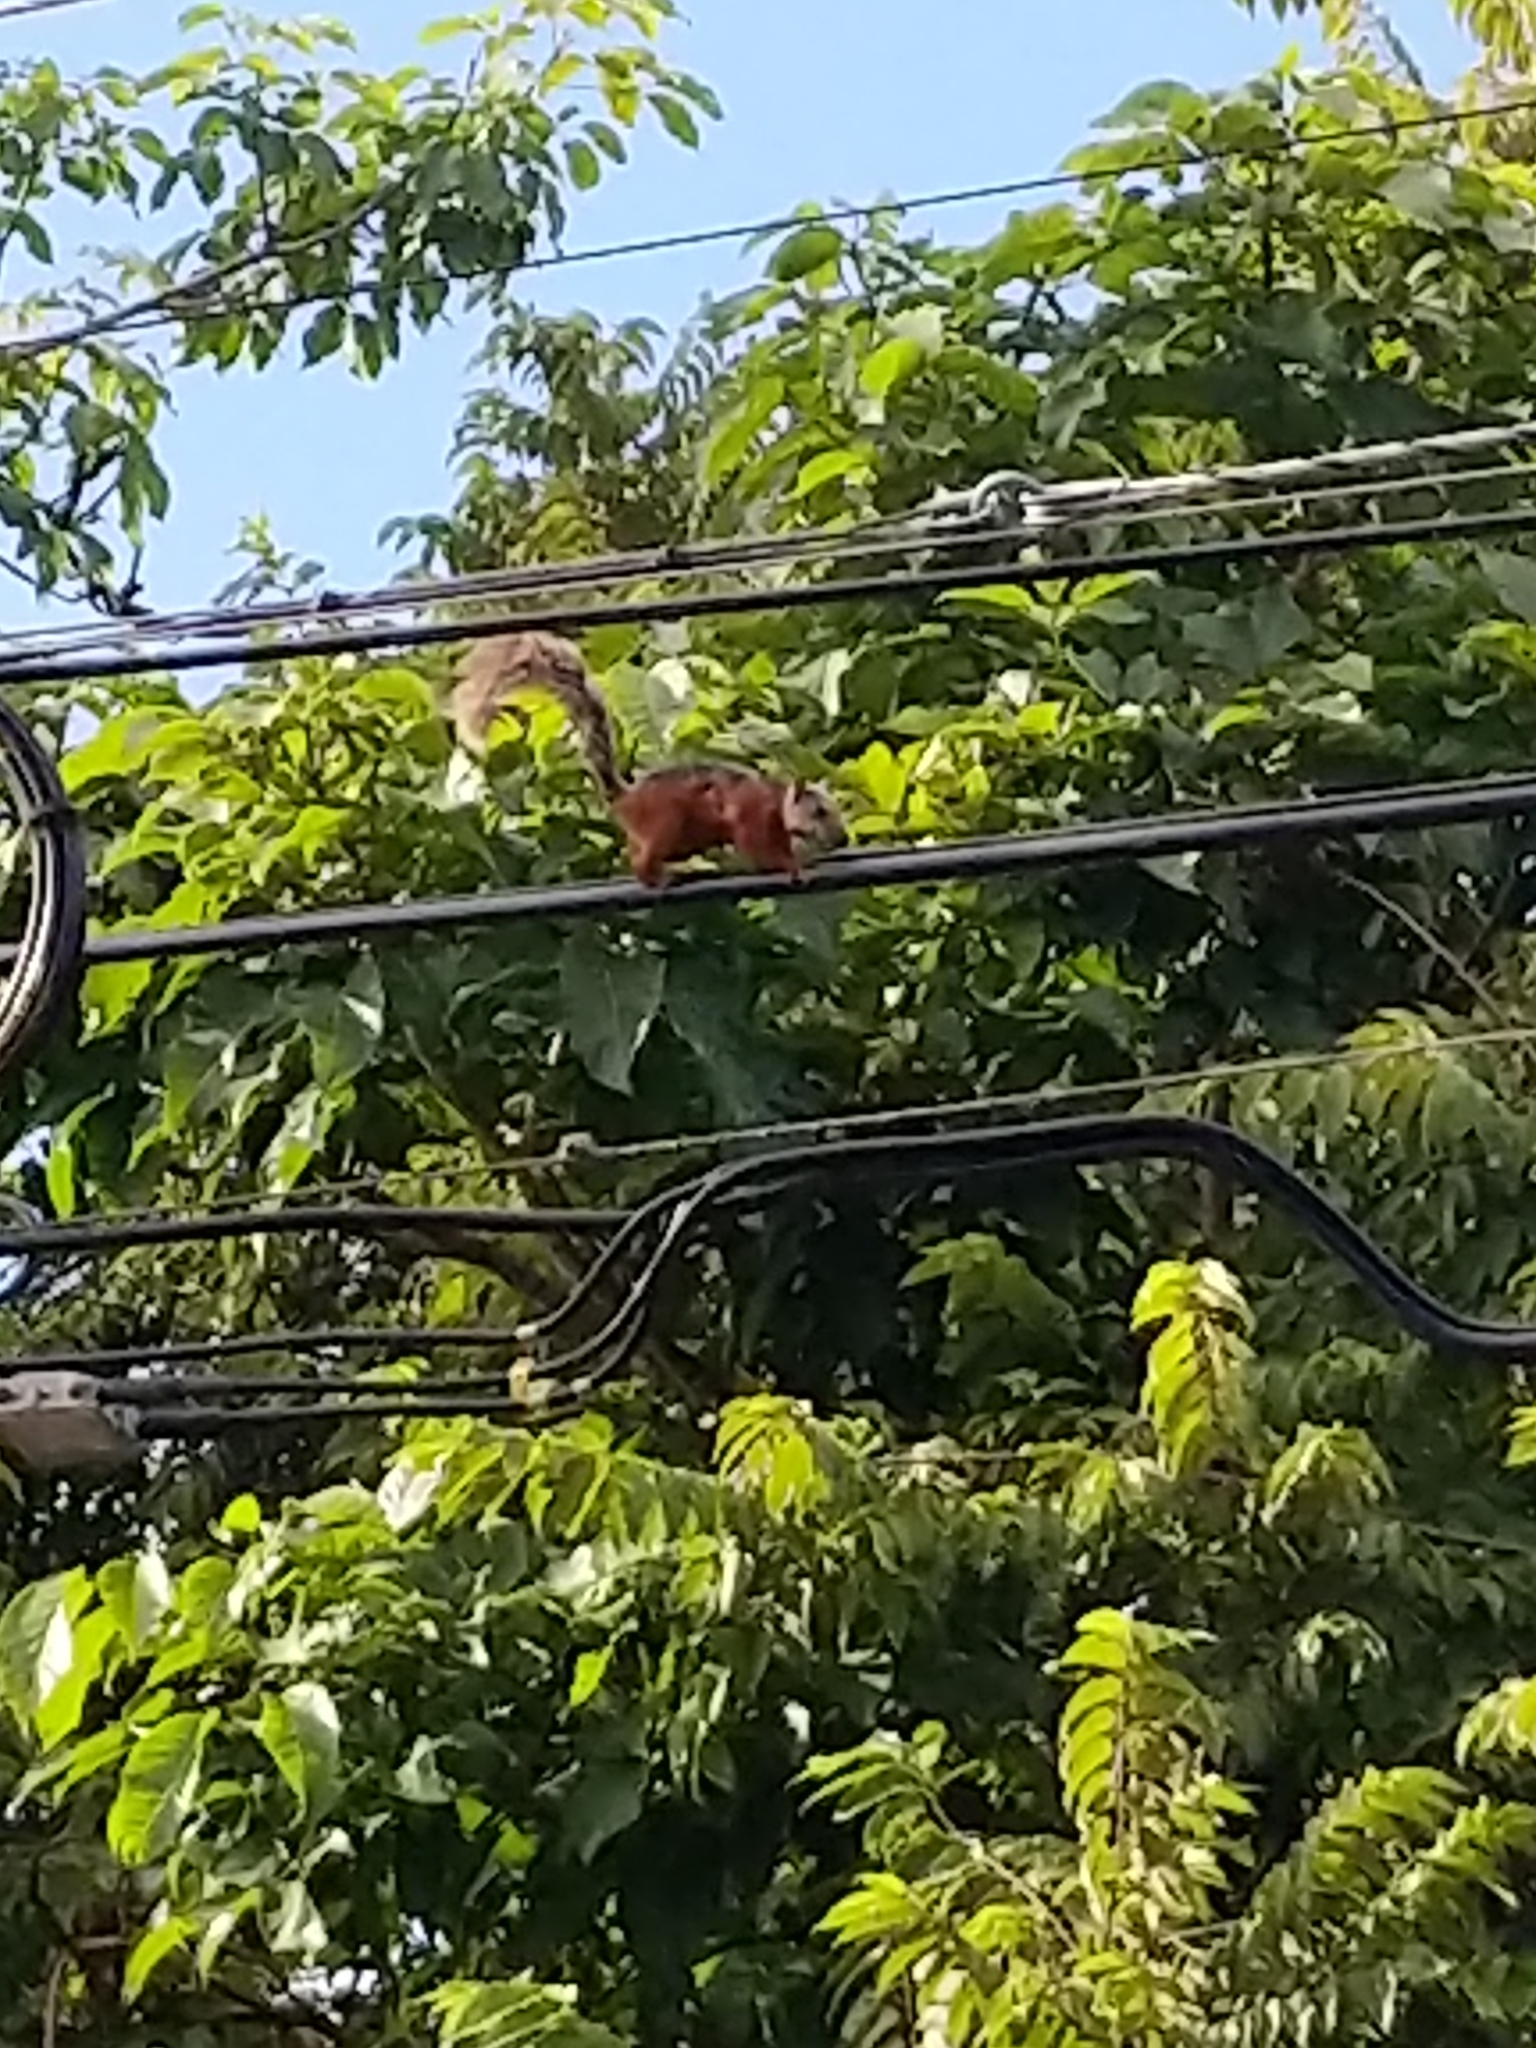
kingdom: Animalia
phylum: Chordata
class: Mammalia
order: Rodentia
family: Sciuridae
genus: Sciurus
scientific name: Sciurus variegatoides
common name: Variegated squirrel
